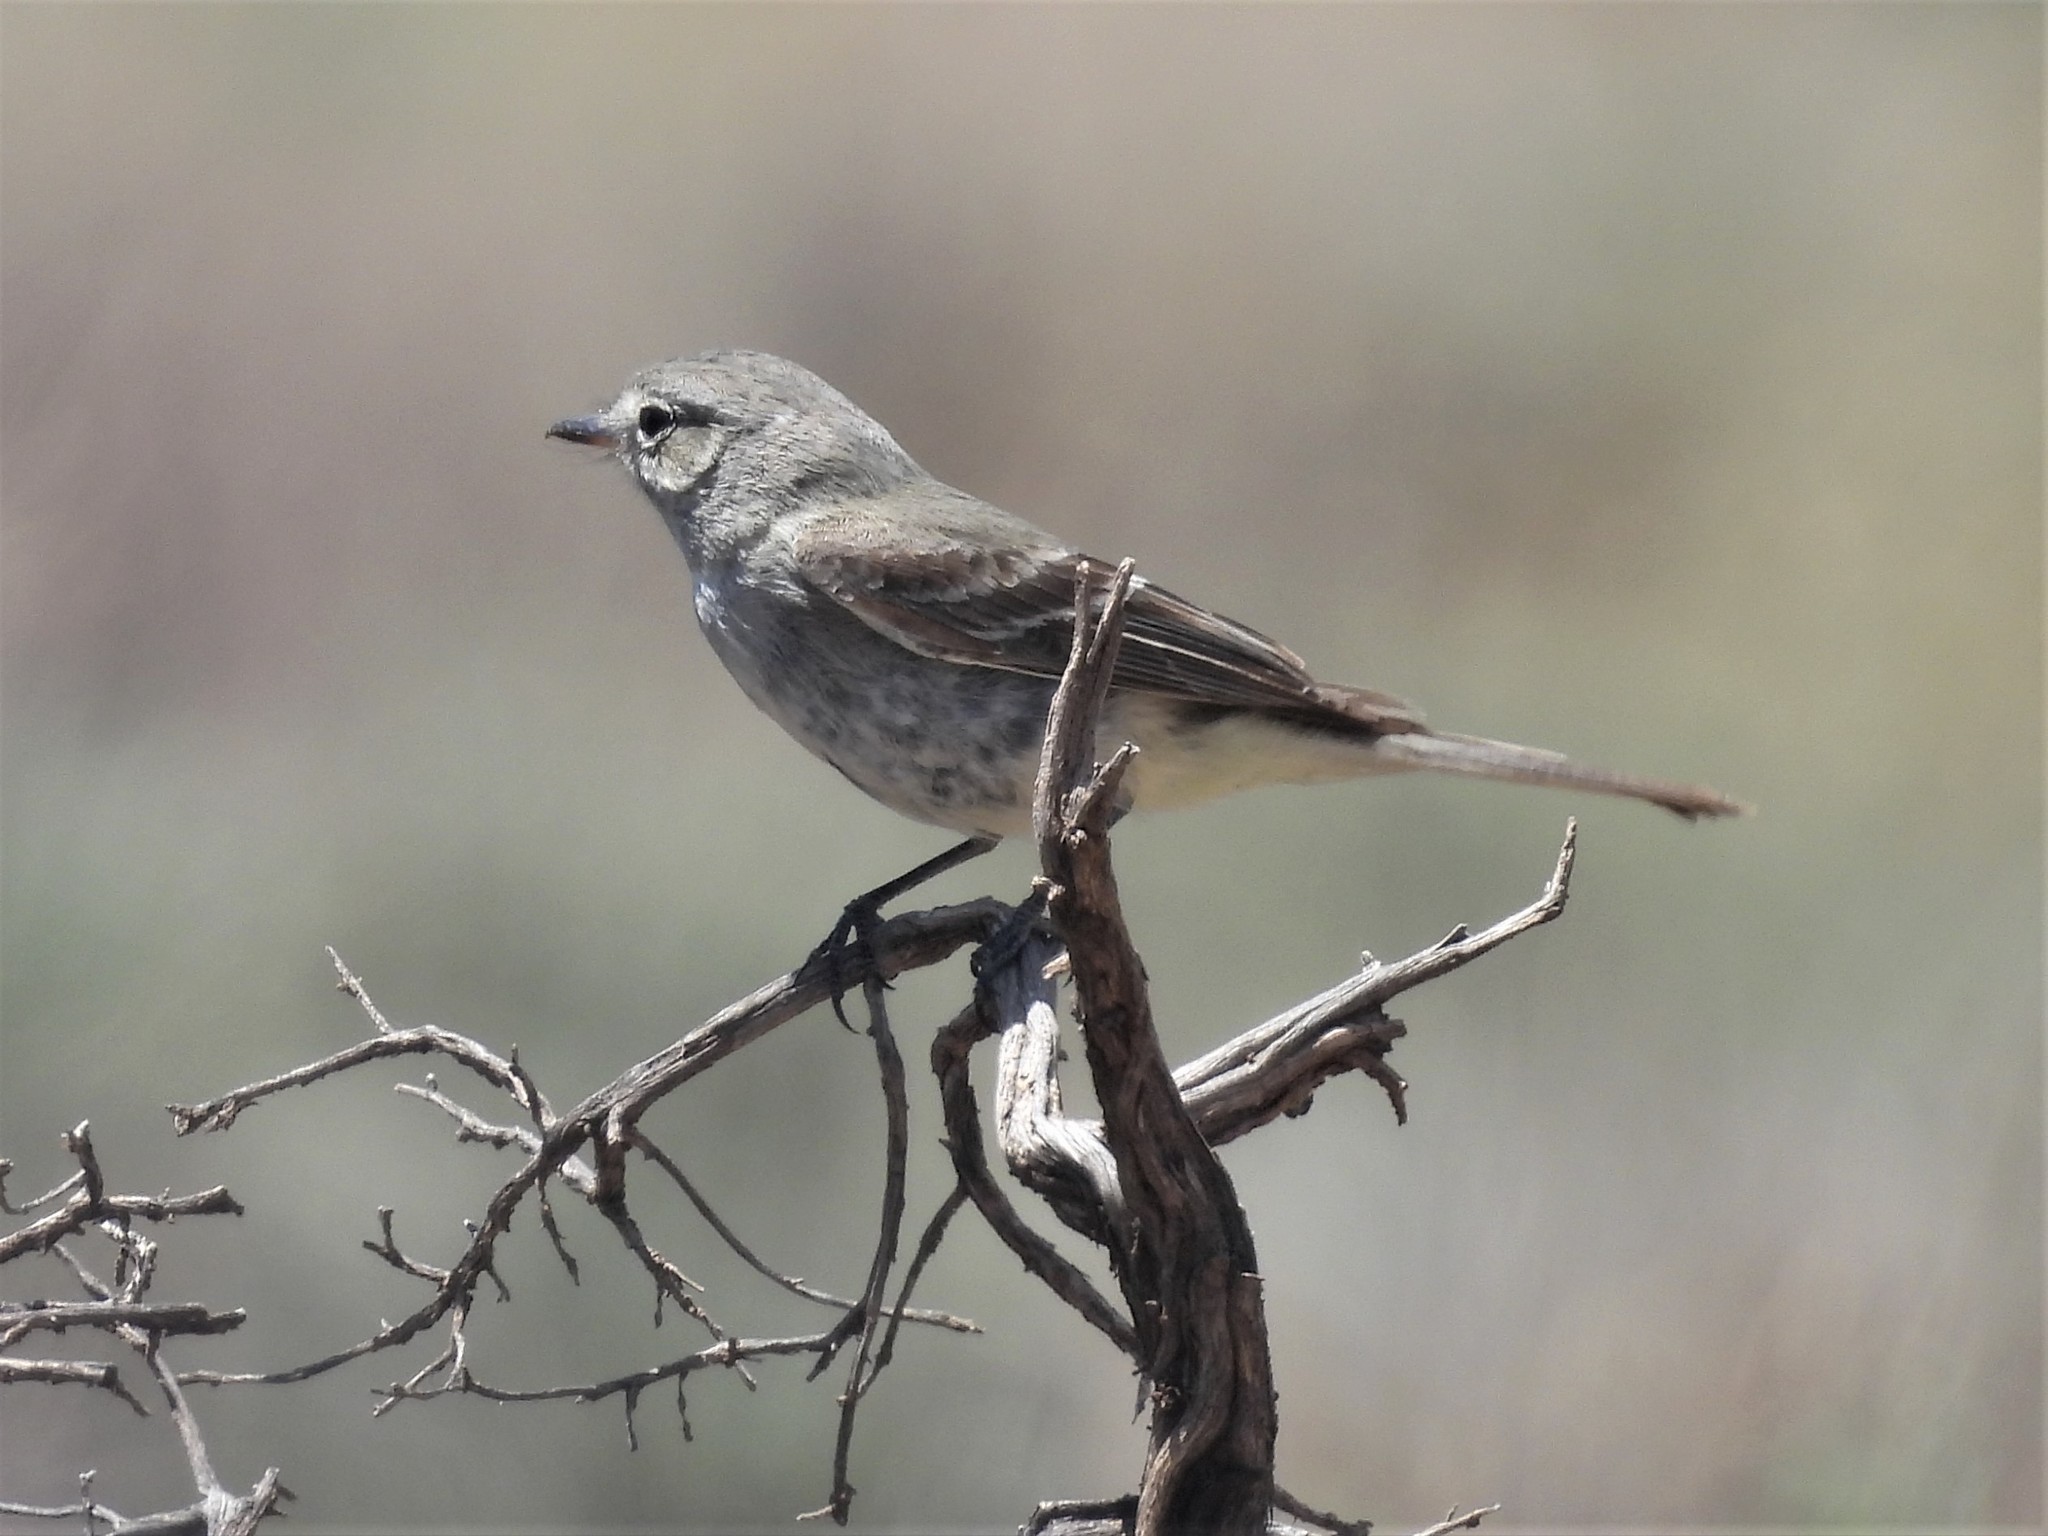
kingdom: Animalia
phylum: Chordata
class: Aves
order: Passeriformes
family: Tyrannidae
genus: Empidonax
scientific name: Empidonax wrightii
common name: Gray flycatcher
